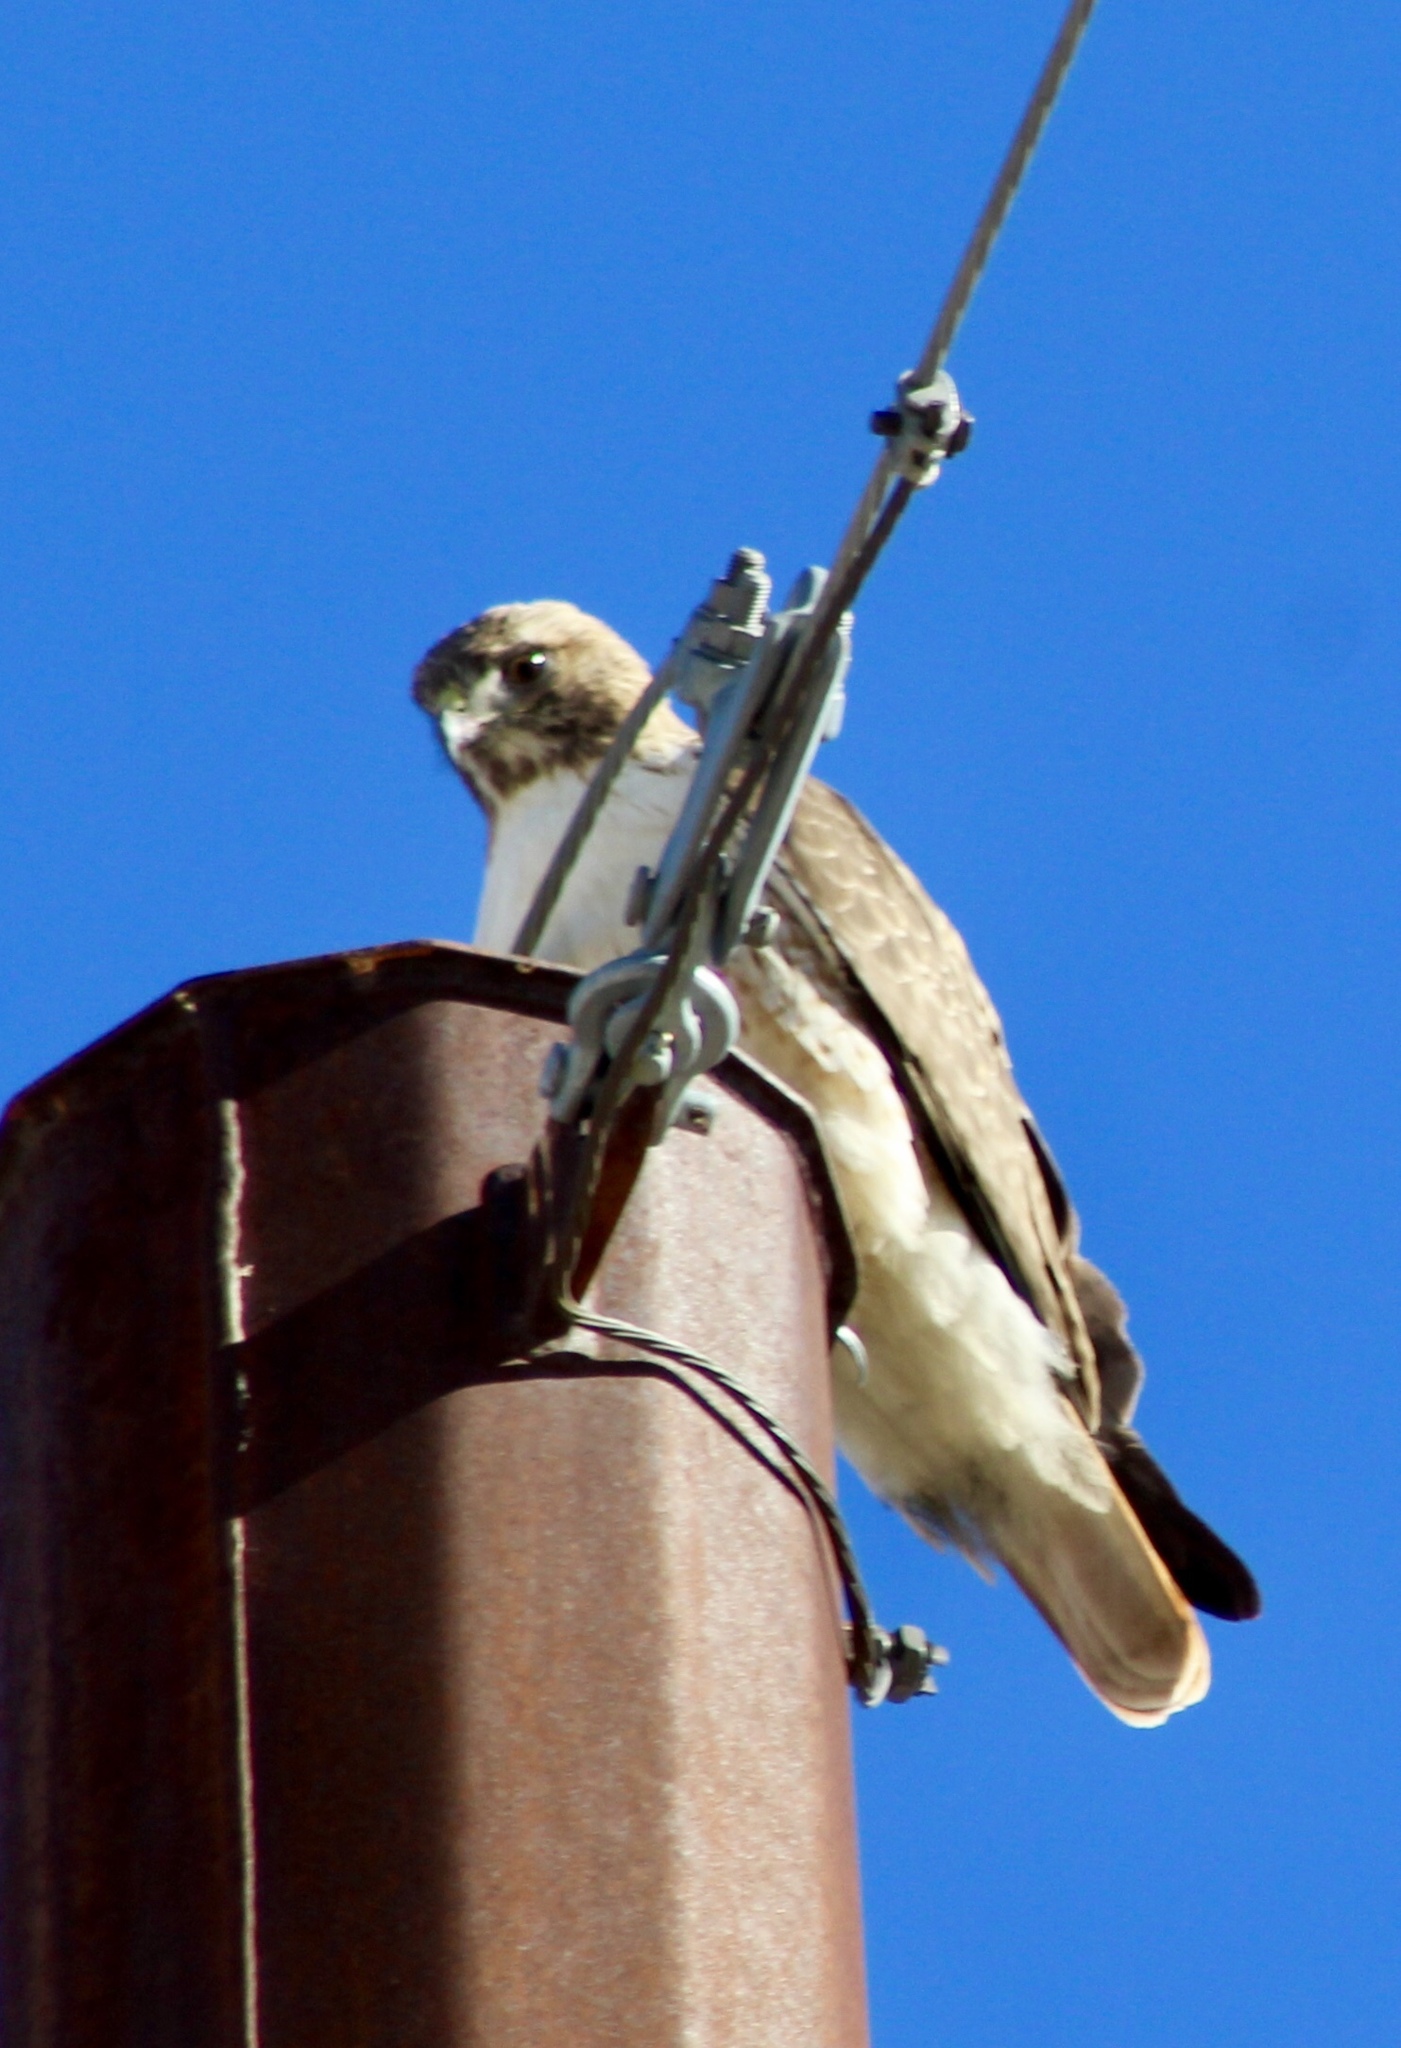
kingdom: Animalia
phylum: Chordata
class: Aves
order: Accipitriformes
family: Accipitridae
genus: Buteo
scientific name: Buteo jamaicensis
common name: Red-tailed hawk
